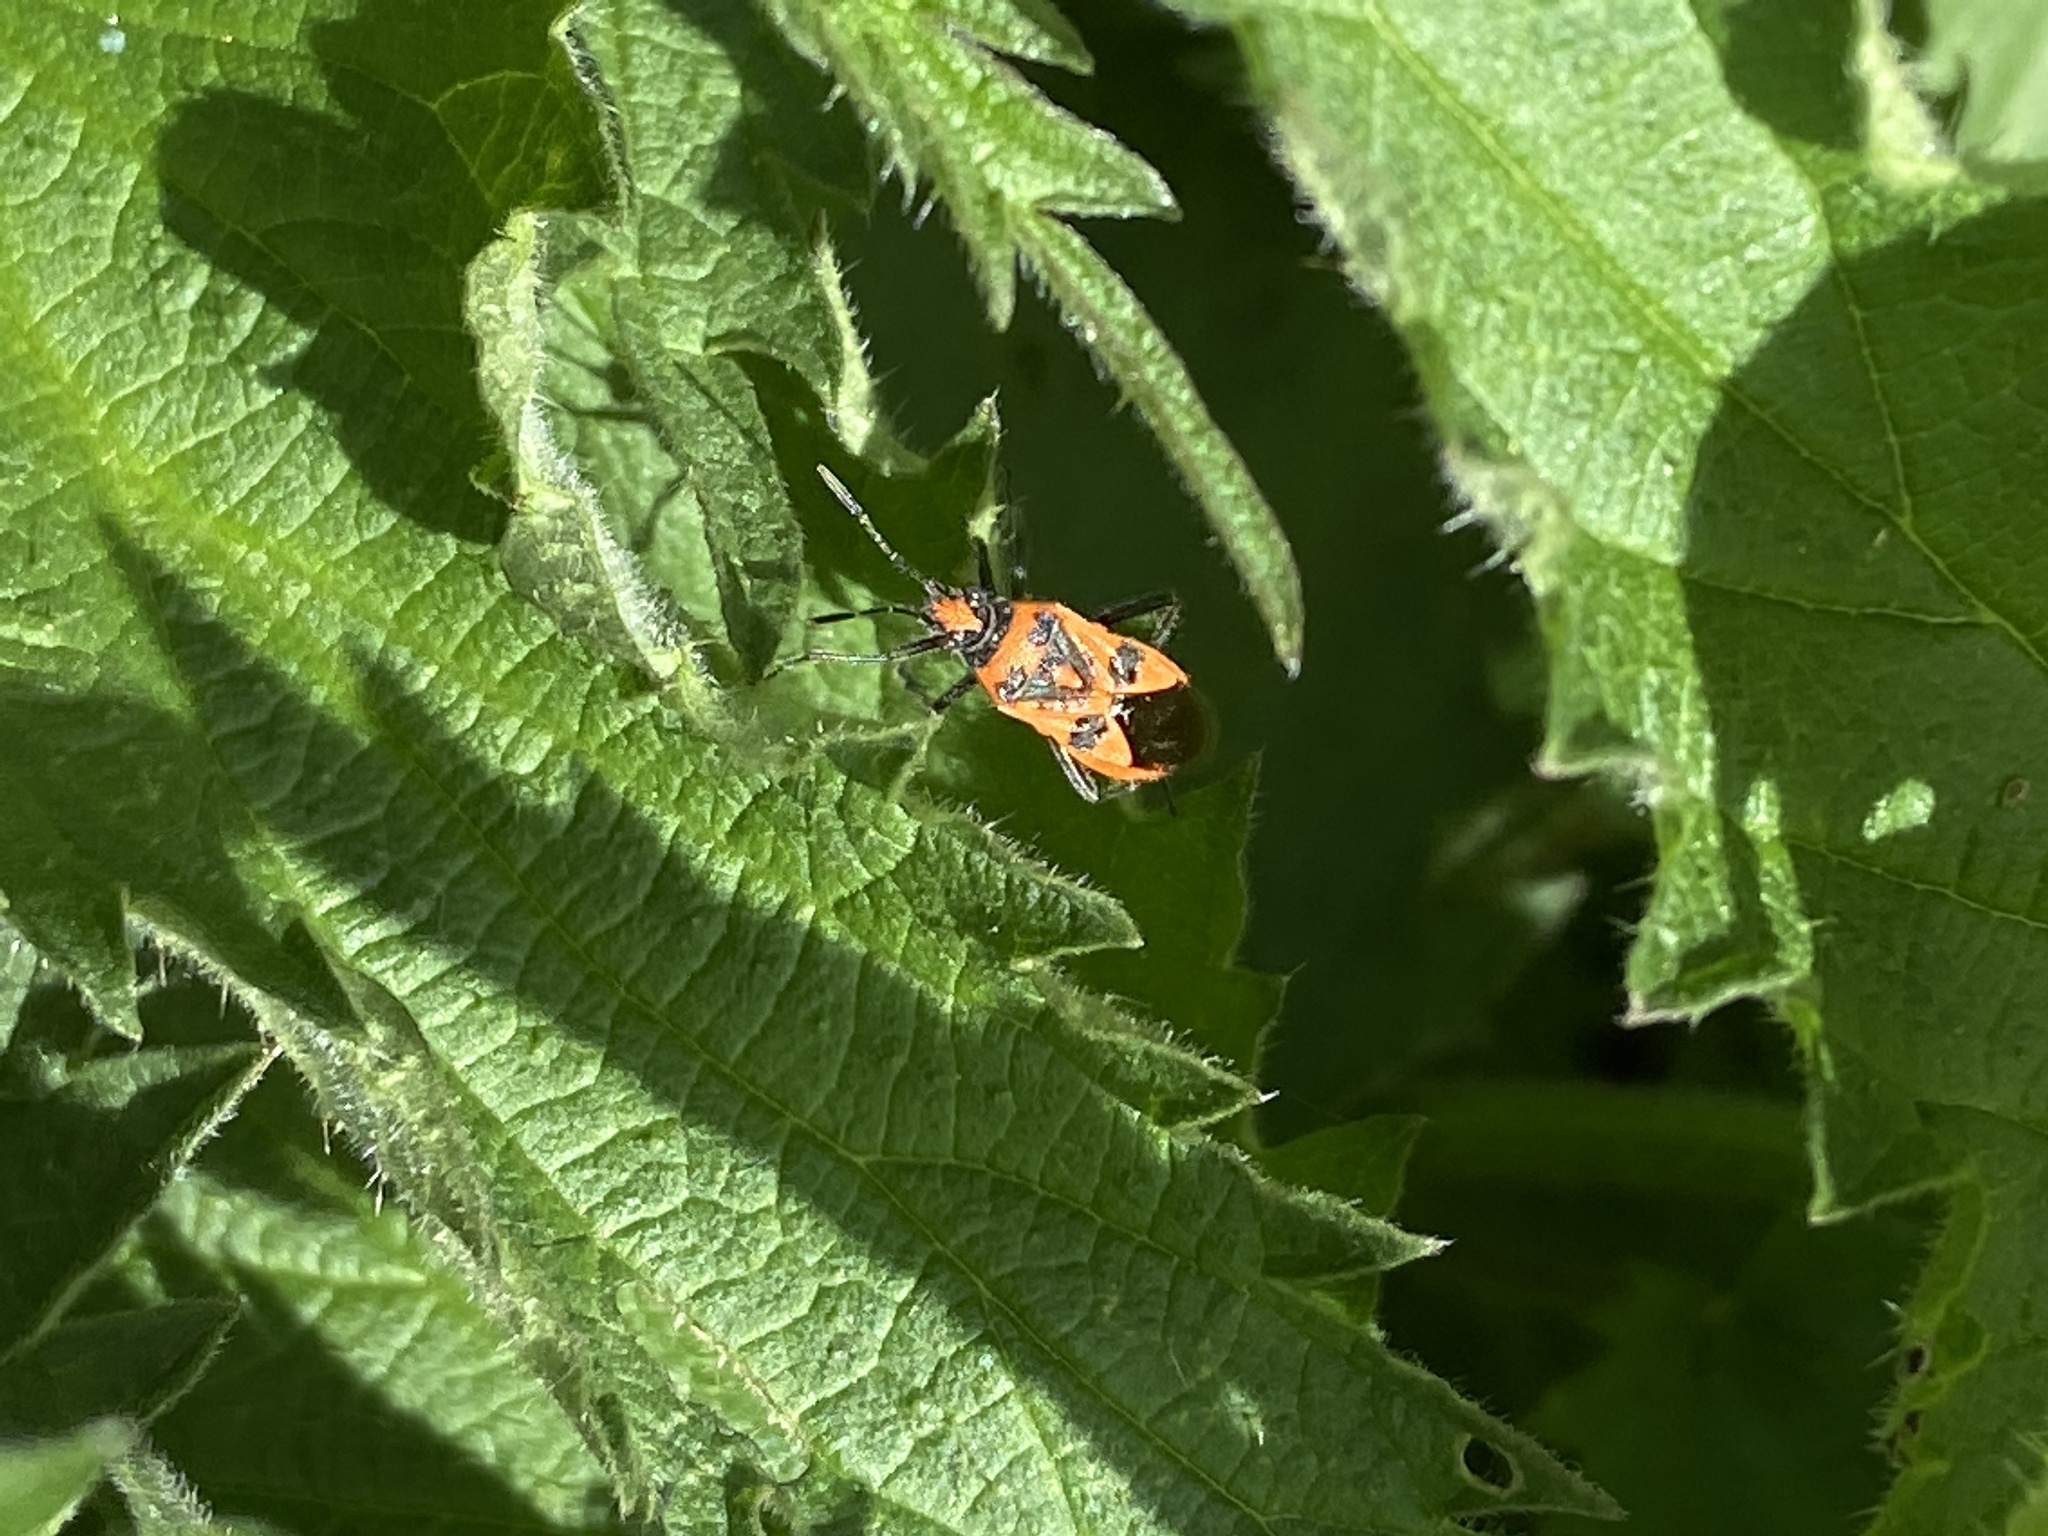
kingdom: Animalia
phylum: Arthropoda
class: Insecta
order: Hemiptera
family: Rhopalidae
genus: Corizus
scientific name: Corizus hyoscyami
